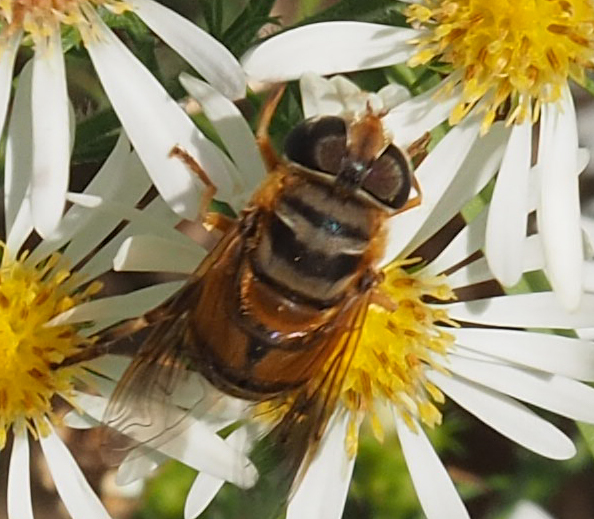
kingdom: Animalia
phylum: Arthropoda
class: Insecta
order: Diptera
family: Syrphidae
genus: Palpada
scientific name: Palpada vinetorum
